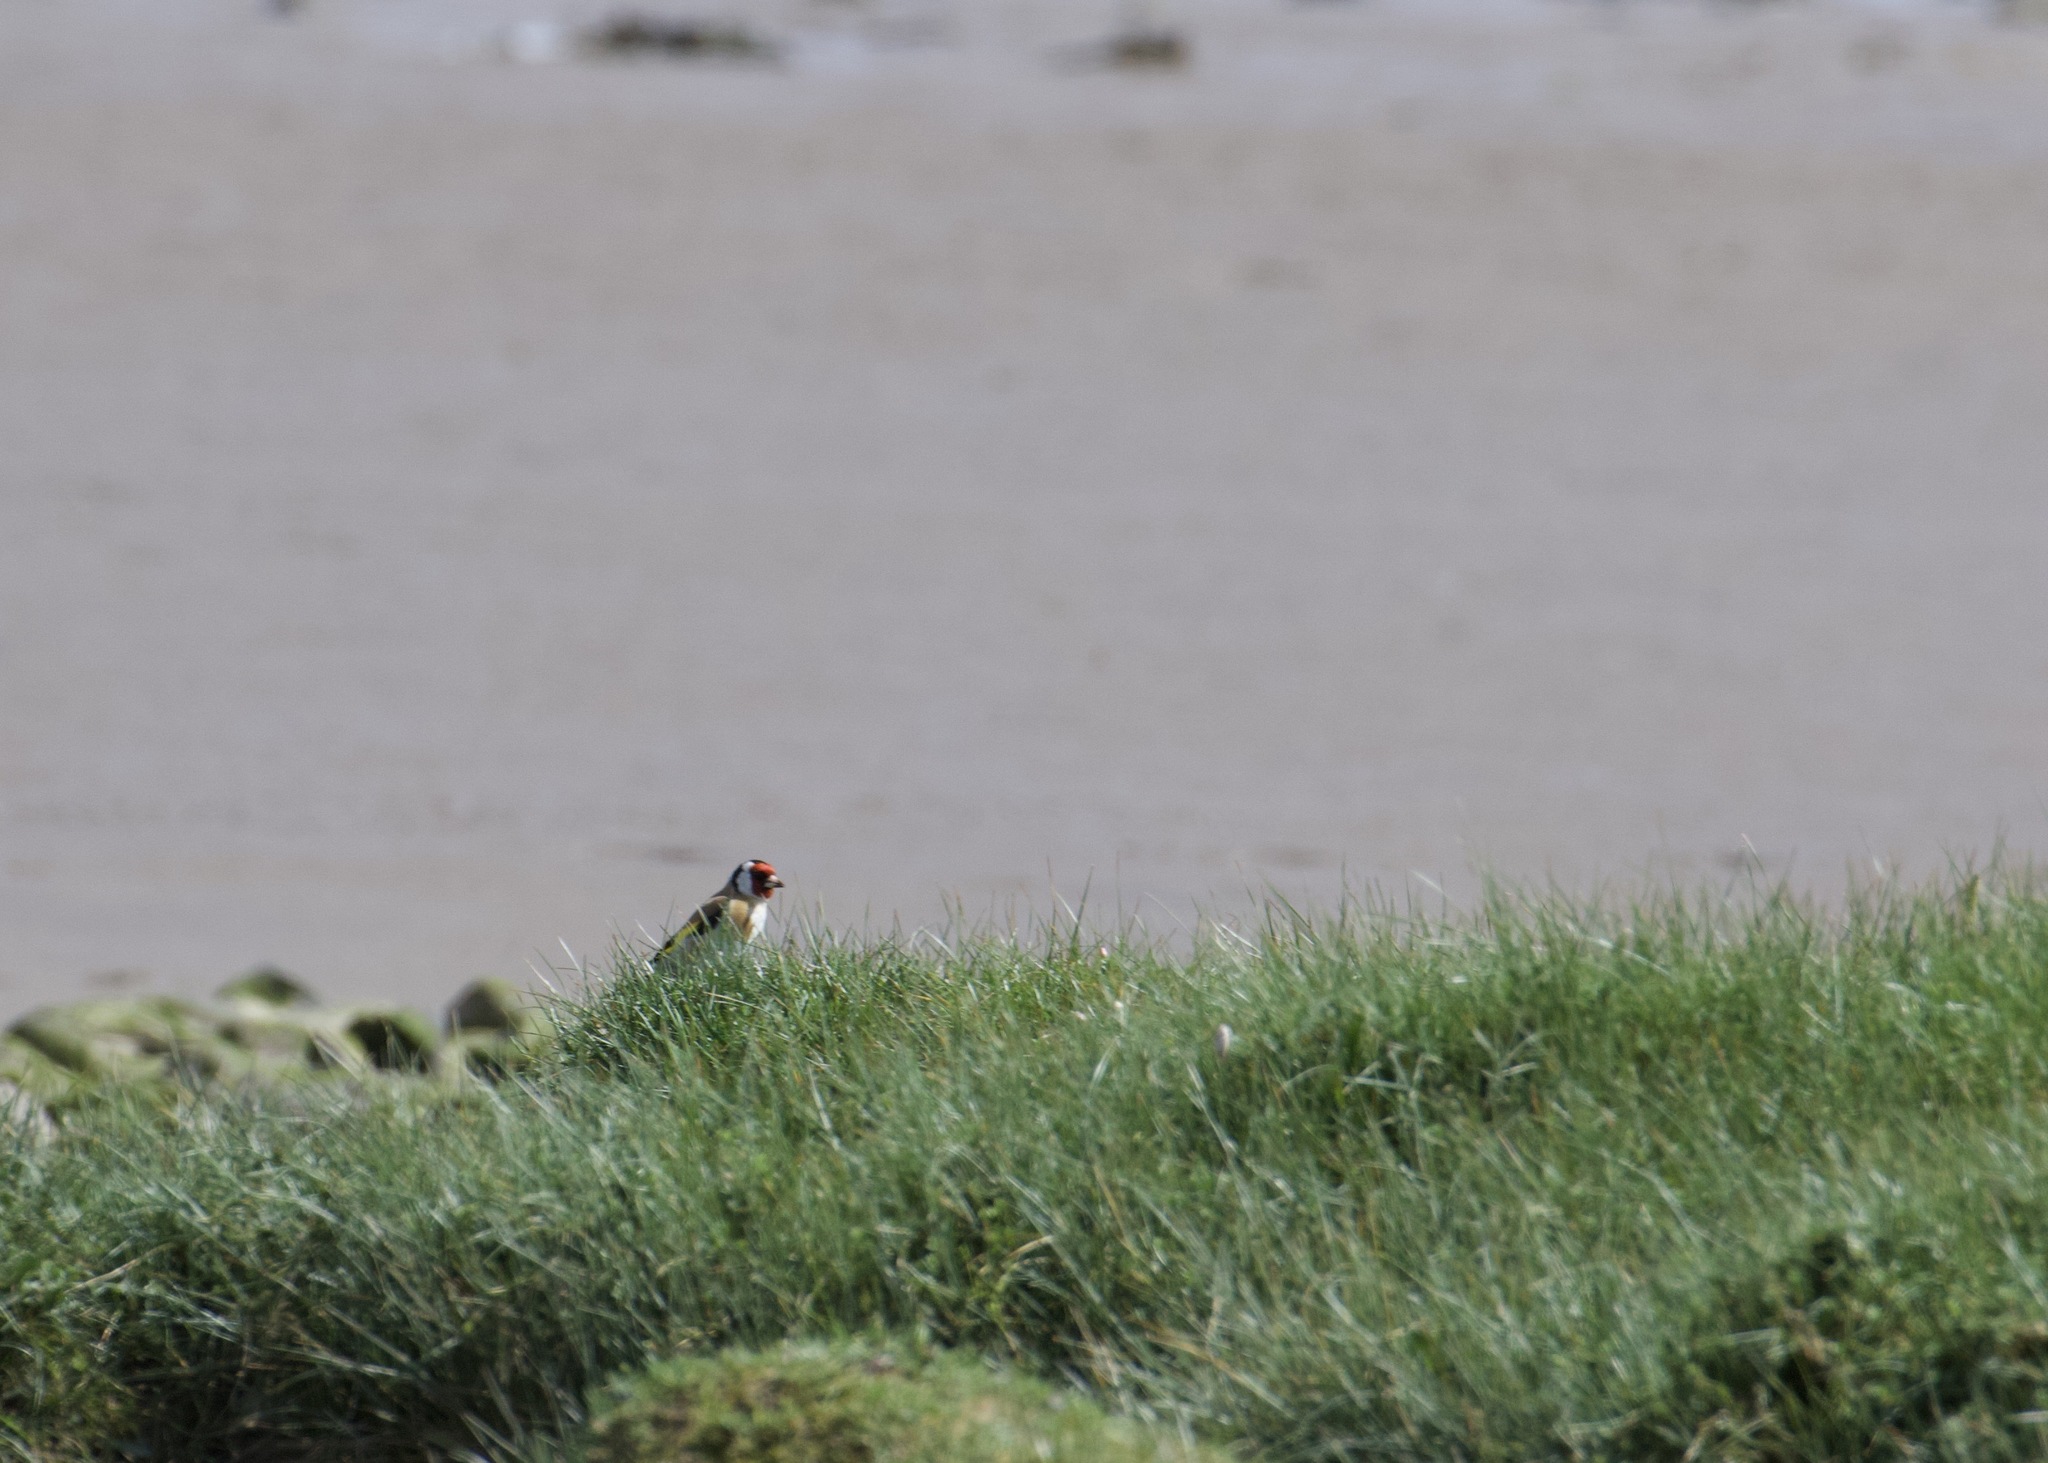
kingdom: Animalia
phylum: Chordata
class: Aves
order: Passeriformes
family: Fringillidae
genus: Carduelis
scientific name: Carduelis carduelis
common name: European goldfinch
